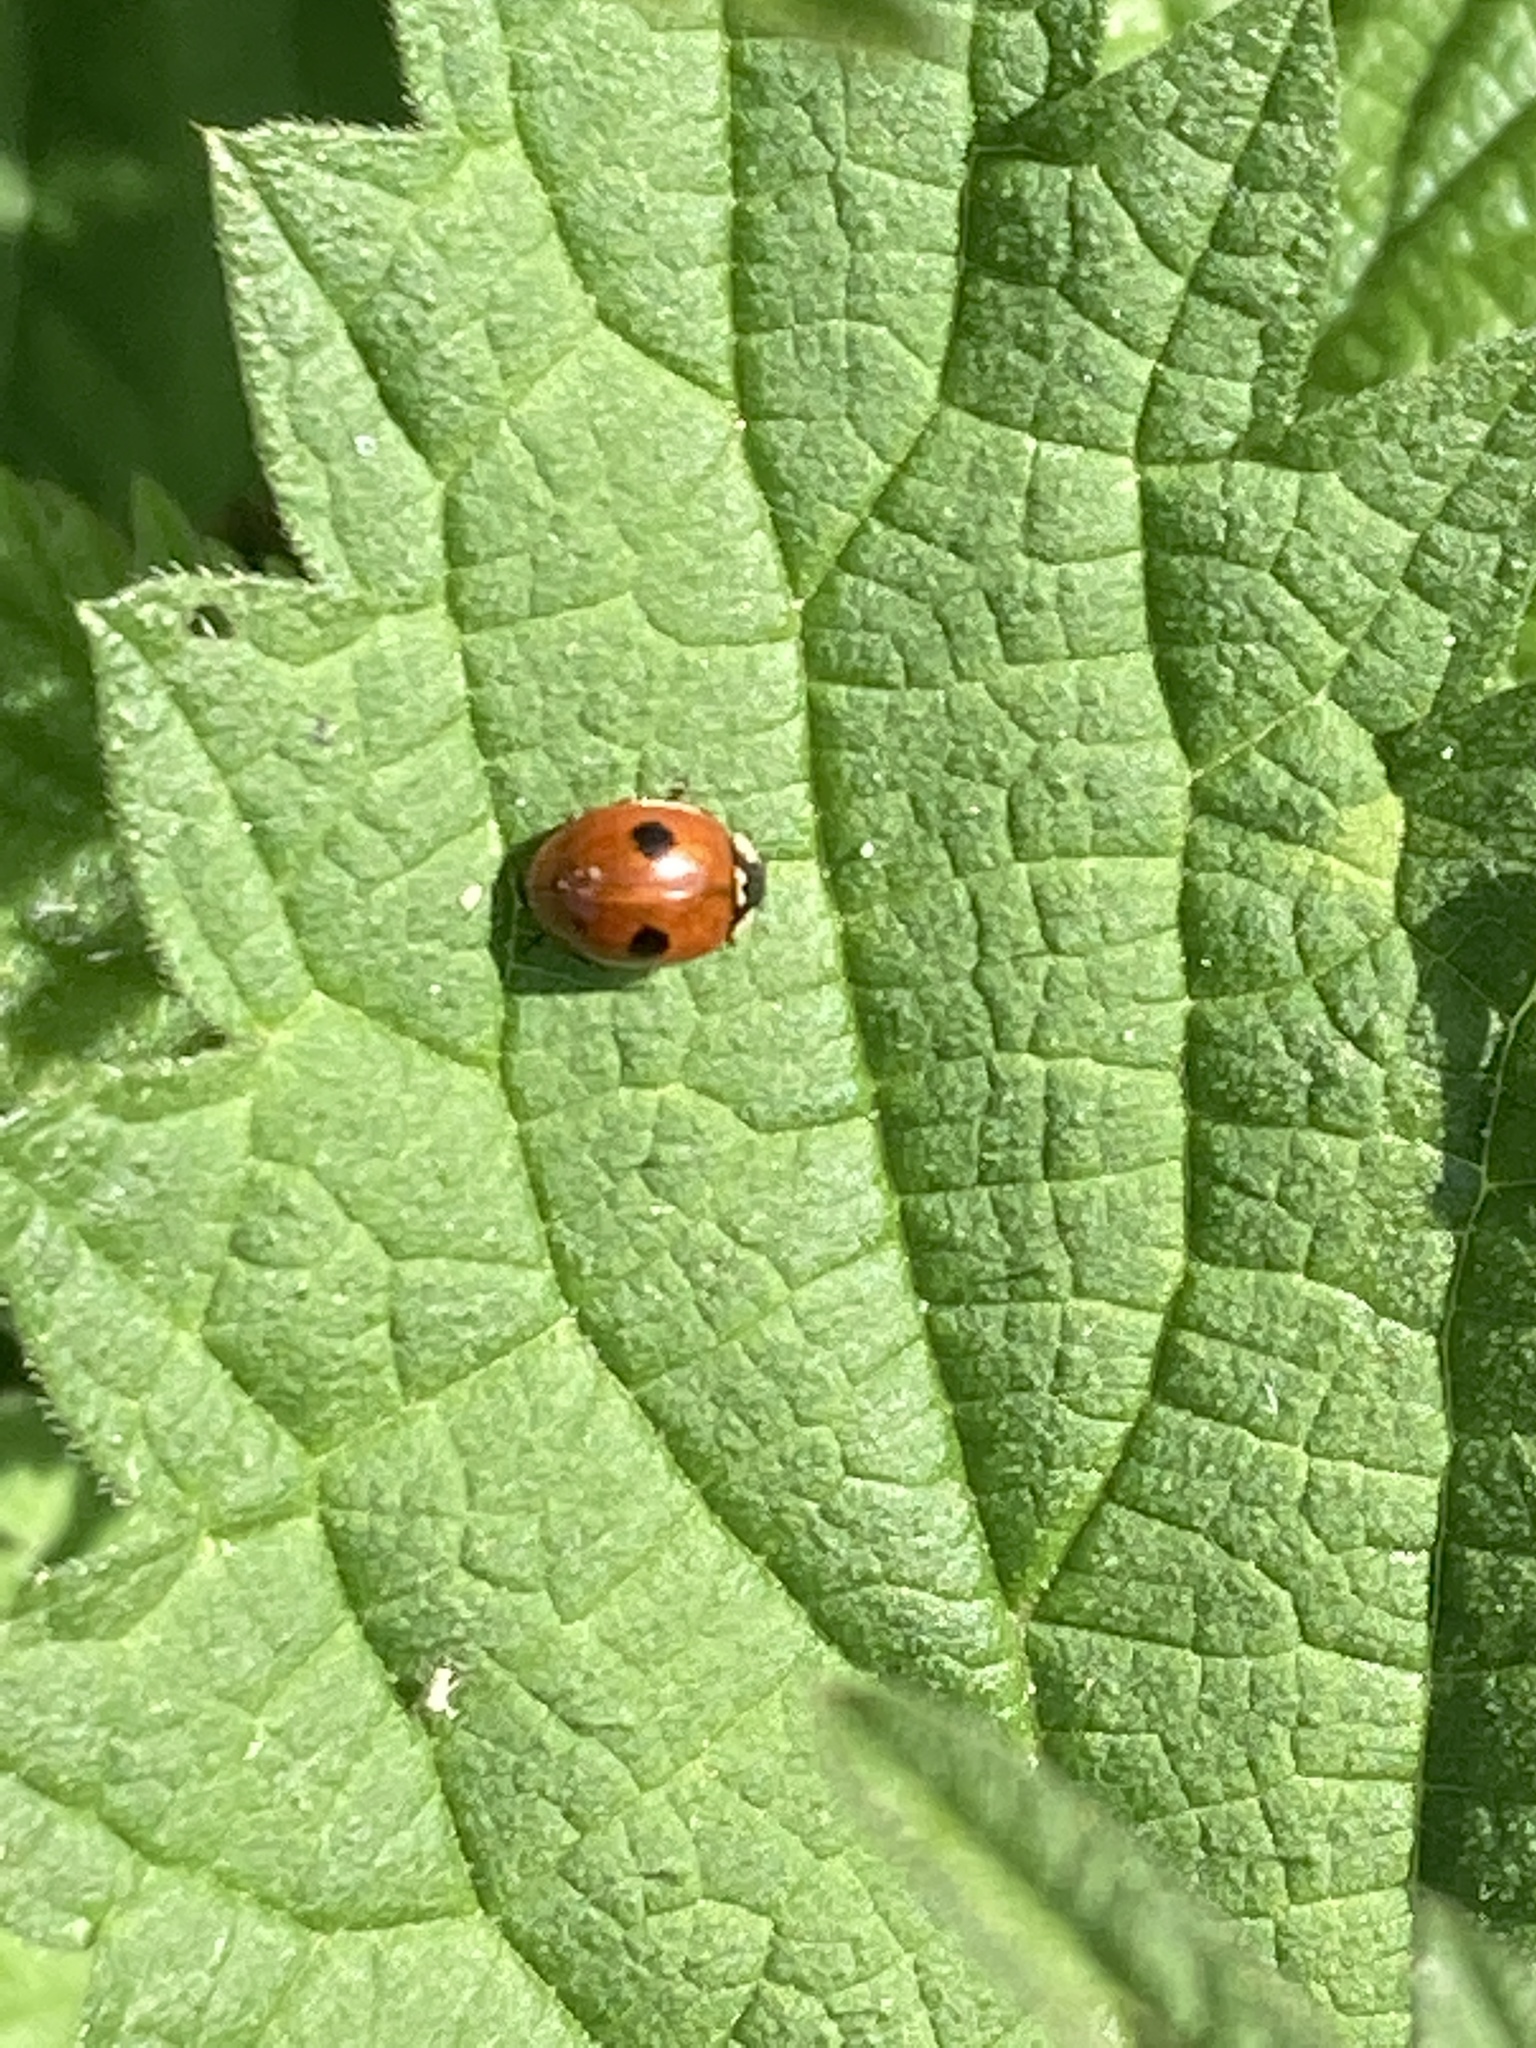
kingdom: Animalia
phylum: Arthropoda
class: Insecta
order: Coleoptera
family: Coccinellidae
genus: Adalia
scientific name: Adalia bipunctata
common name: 2-spot ladybird
